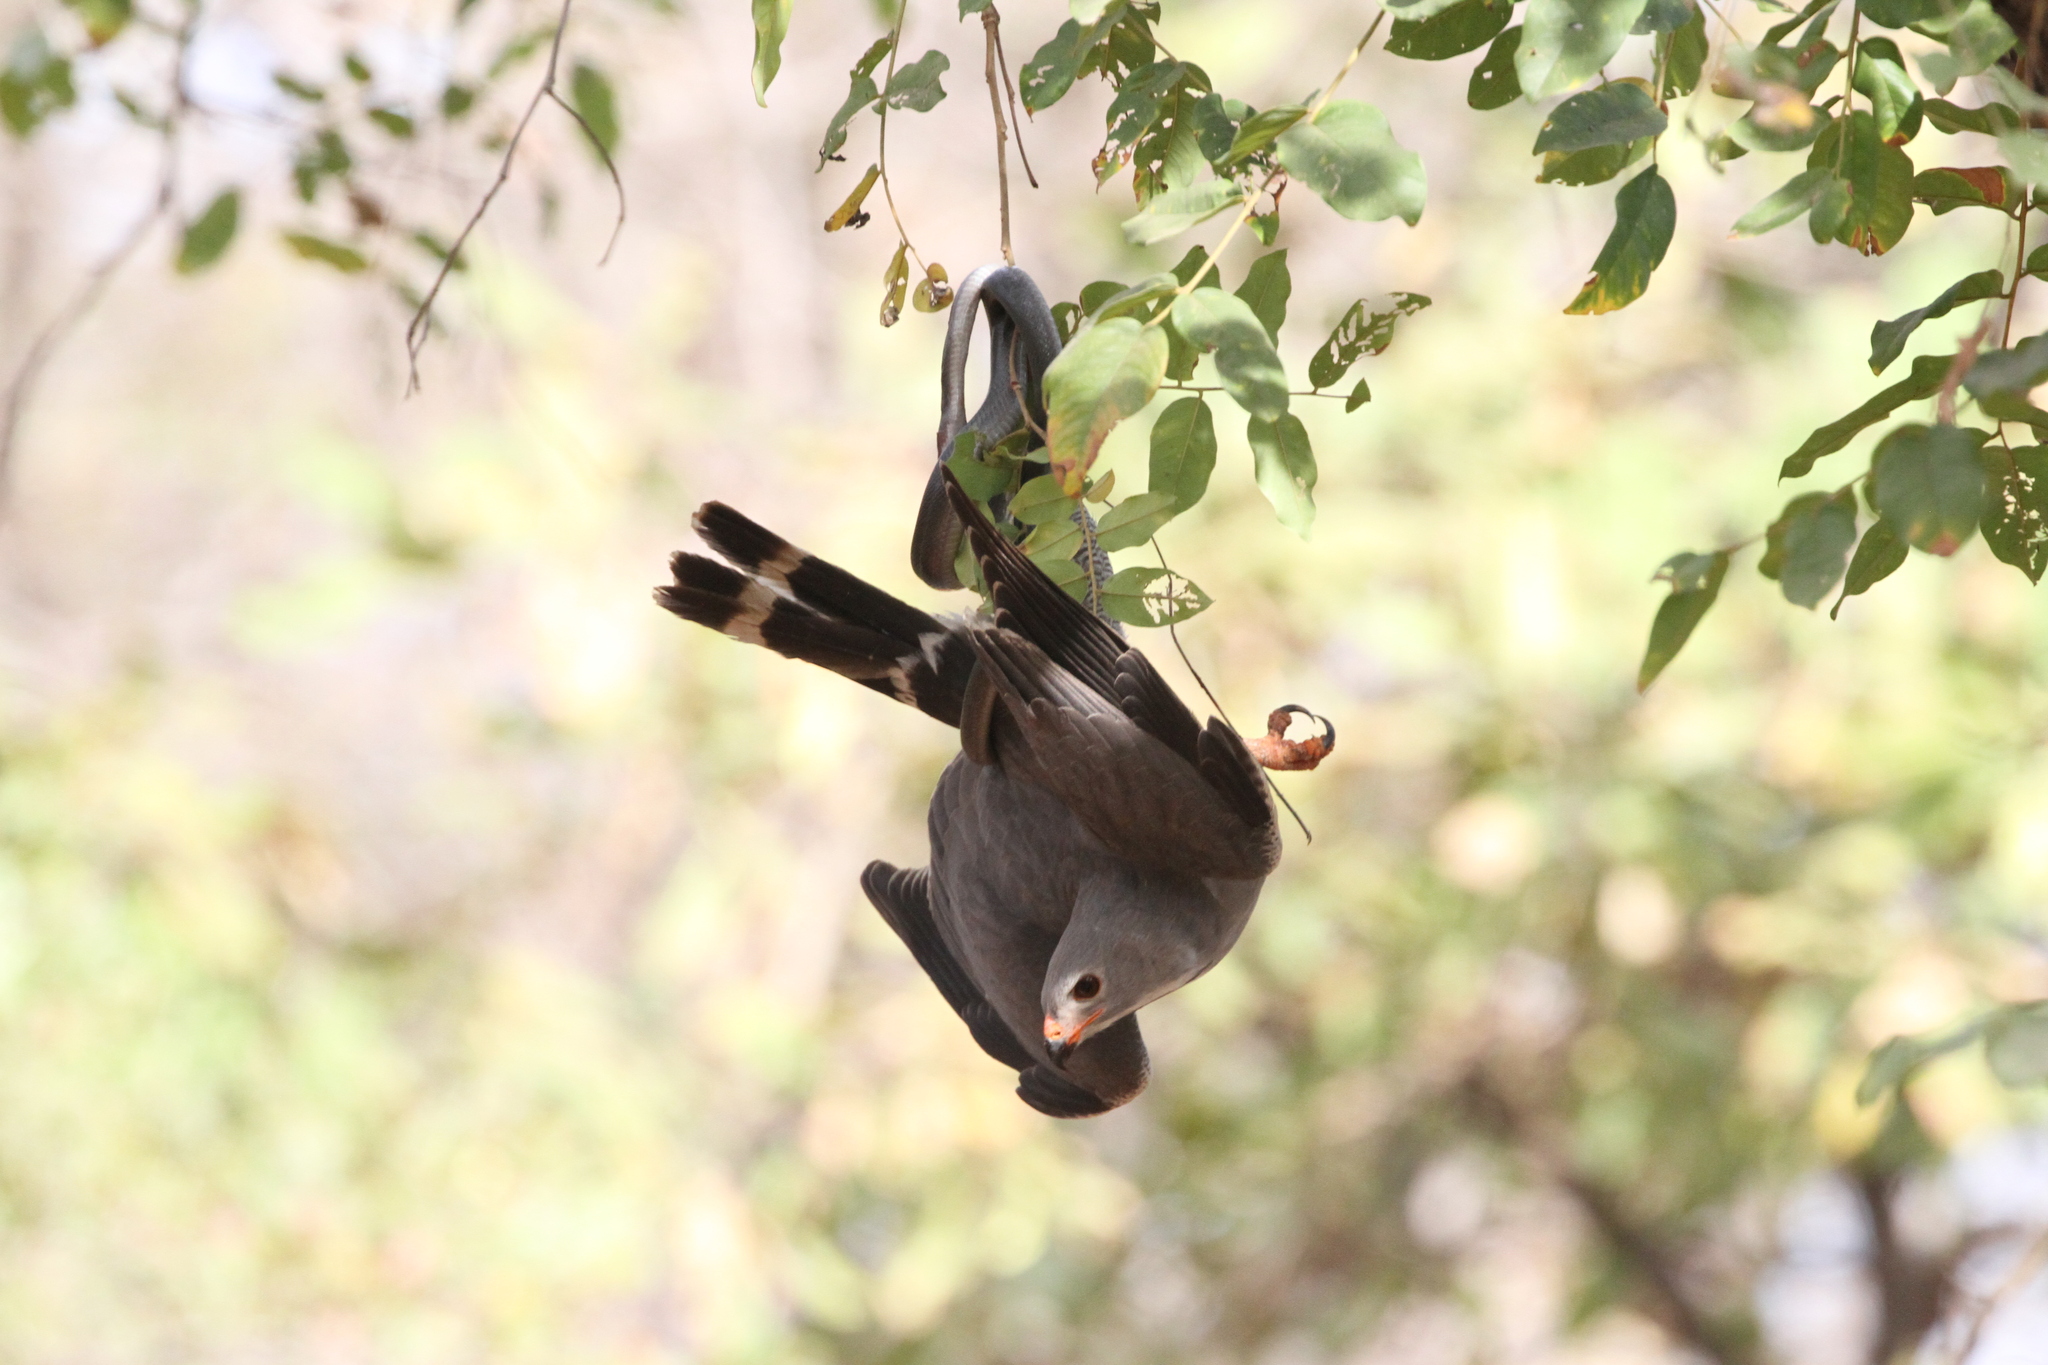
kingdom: Animalia
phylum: Chordata
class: Aves
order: Accipitriformes
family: Accipitridae
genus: Kaupifalco
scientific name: Kaupifalco monogrammicus
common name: Lizard buzzard
